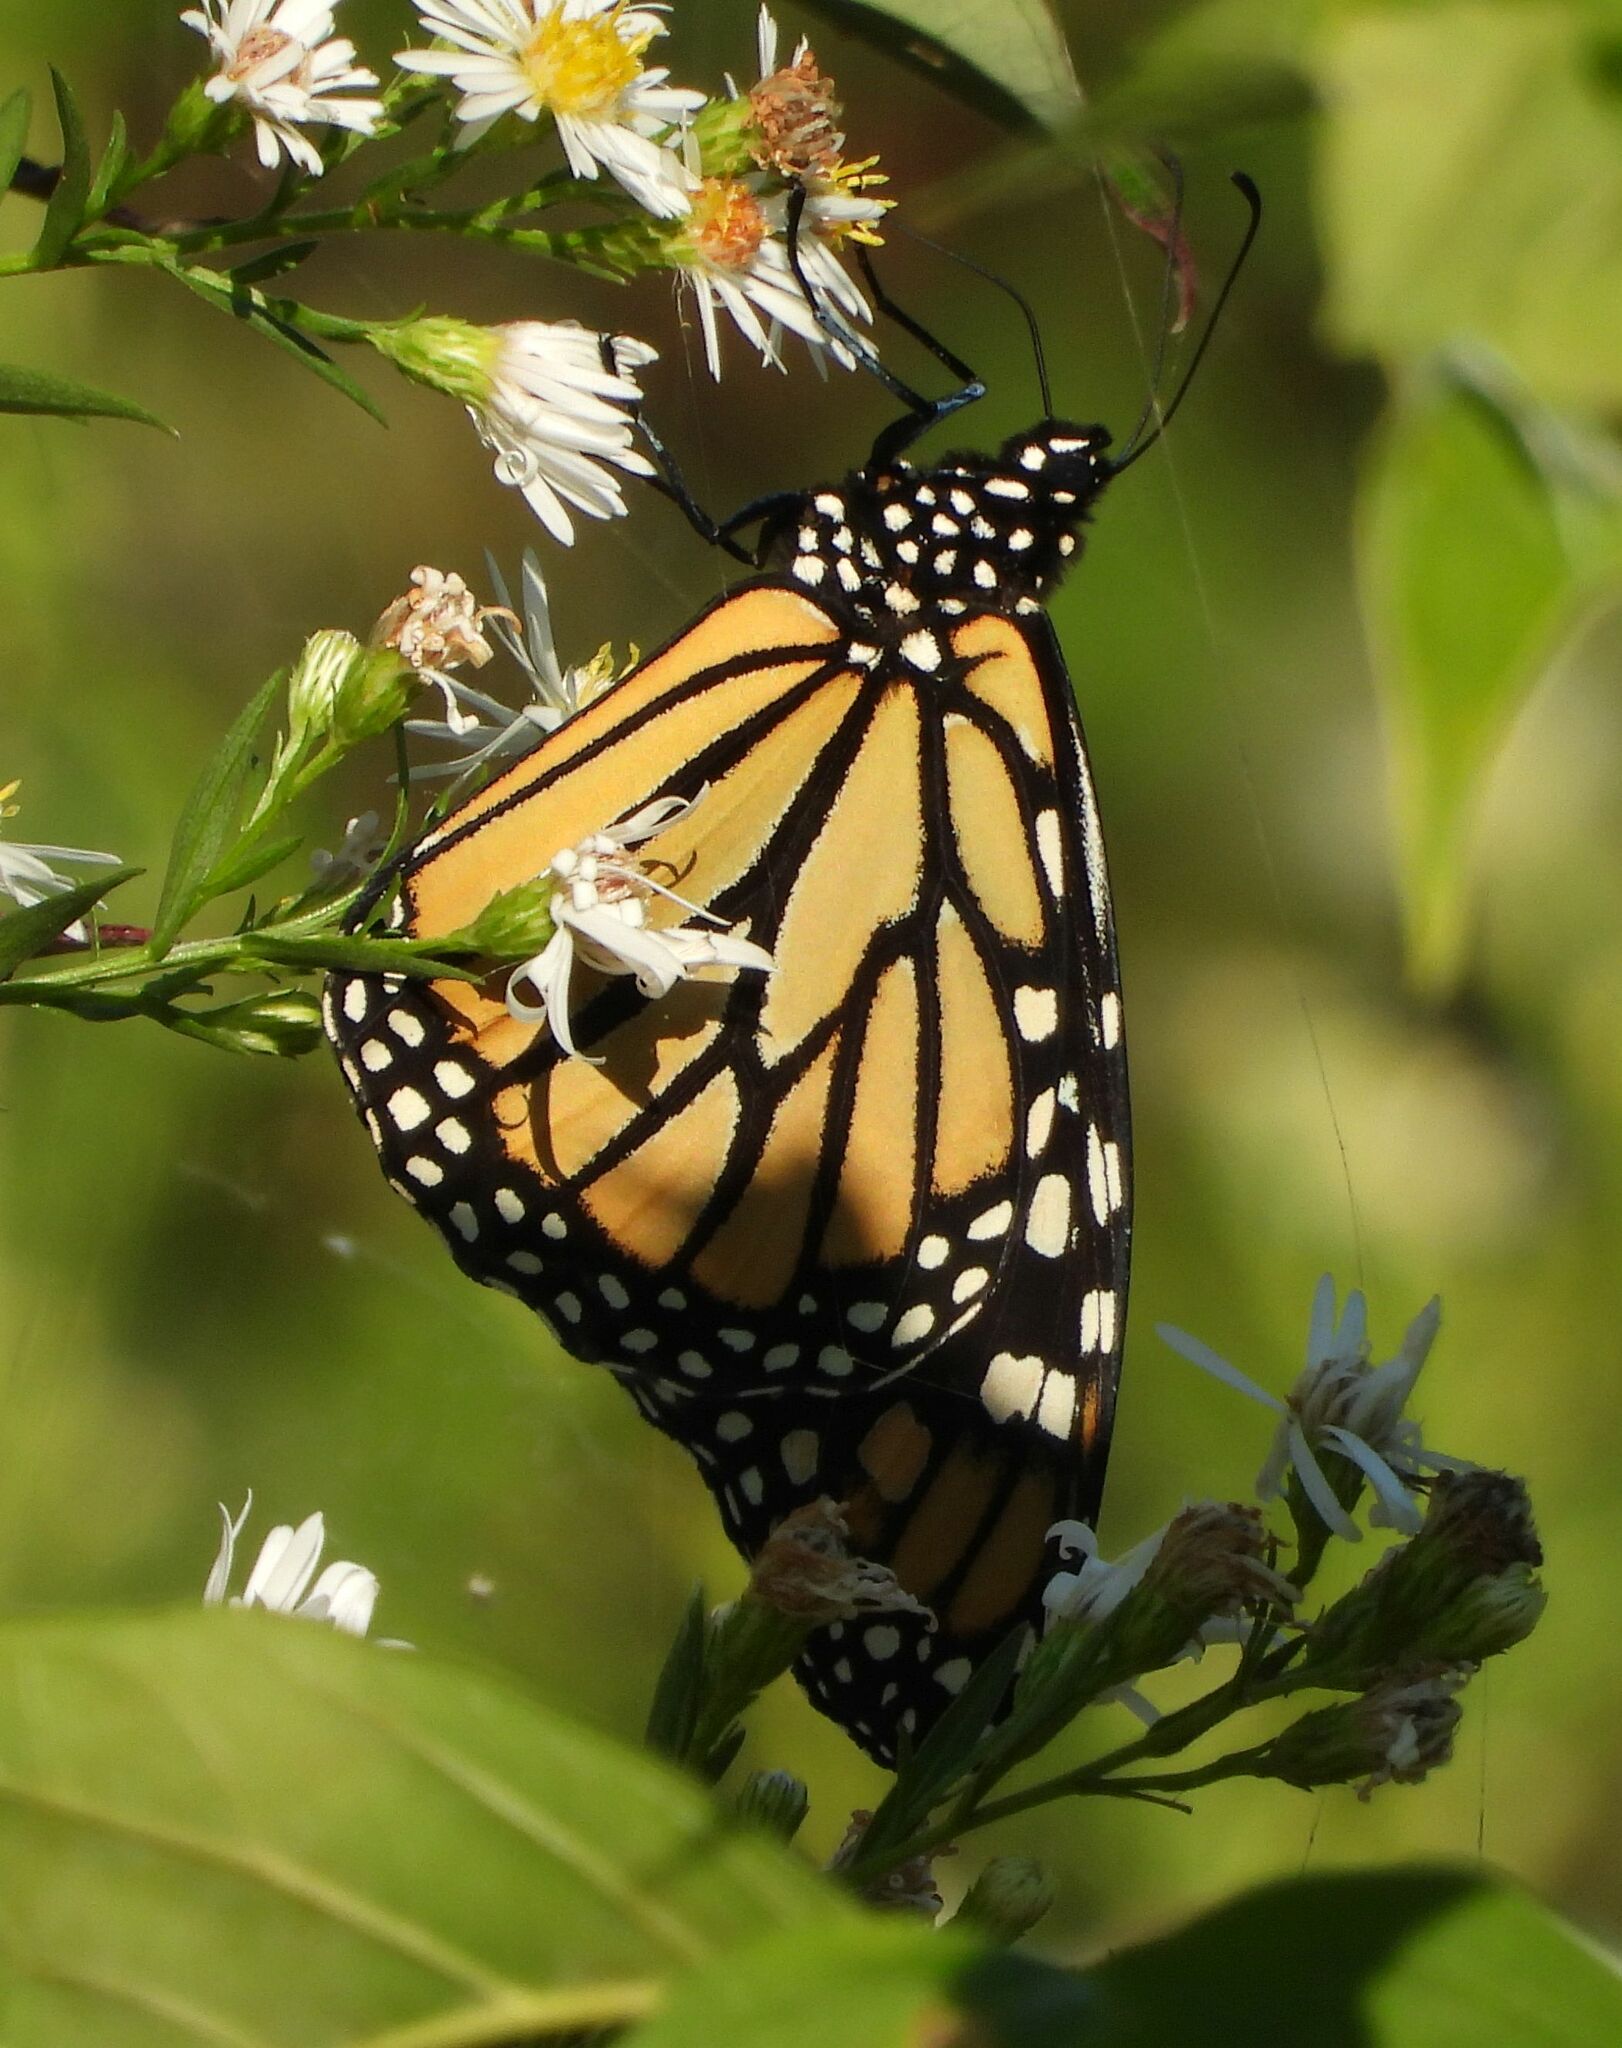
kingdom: Animalia
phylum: Arthropoda
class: Insecta
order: Lepidoptera
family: Nymphalidae
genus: Danaus
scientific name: Danaus plexippus
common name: Monarch
